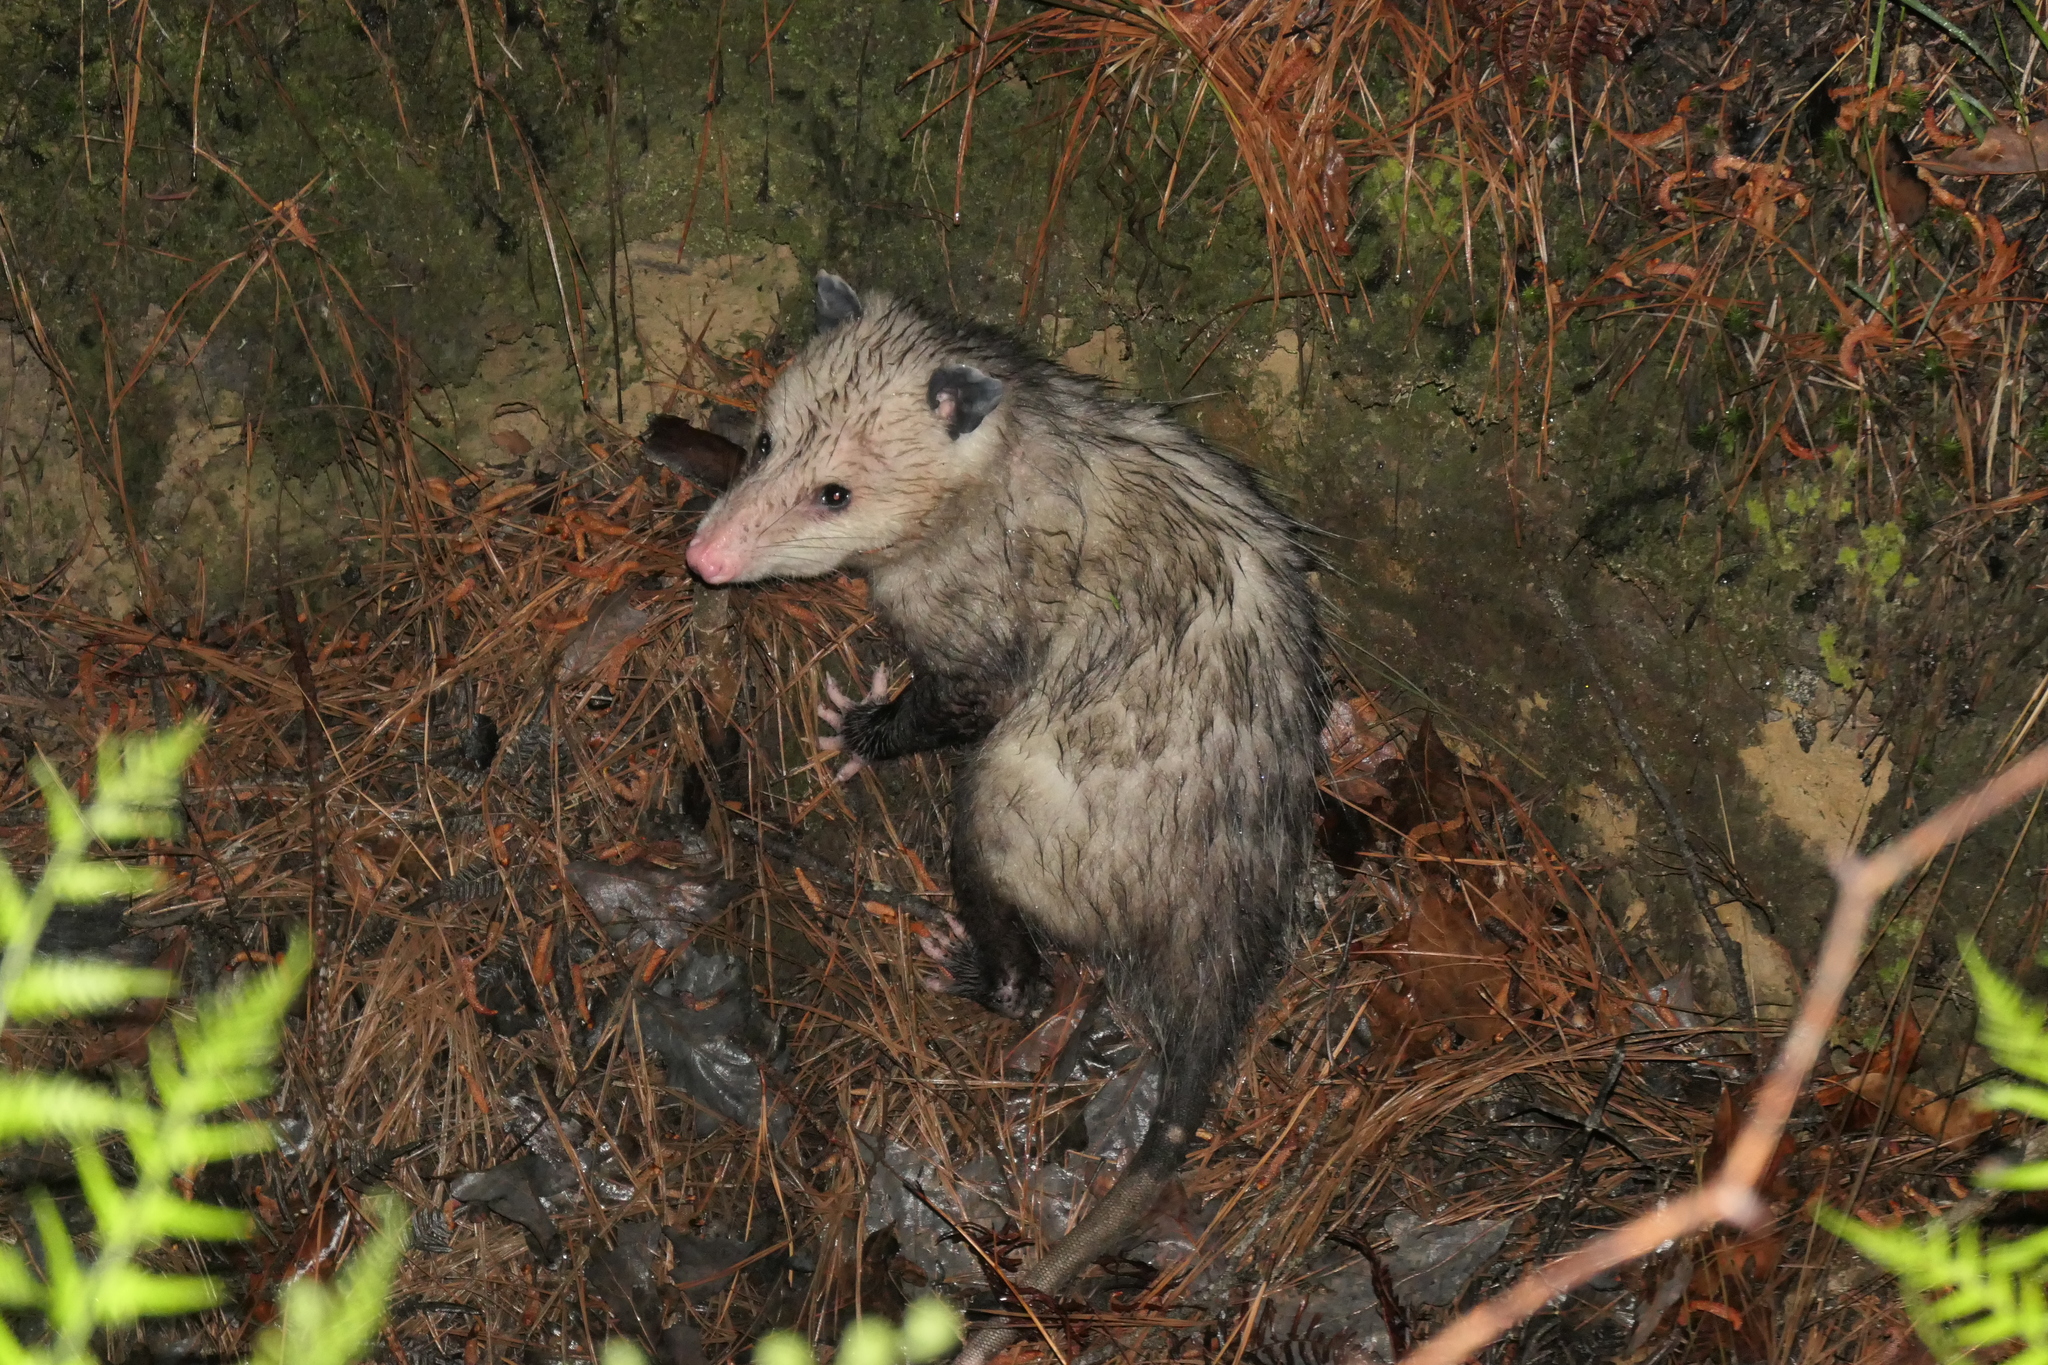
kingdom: Animalia
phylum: Chordata
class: Mammalia
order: Didelphimorphia
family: Didelphidae
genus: Didelphis
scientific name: Didelphis virginiana
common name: Virginia opossum
